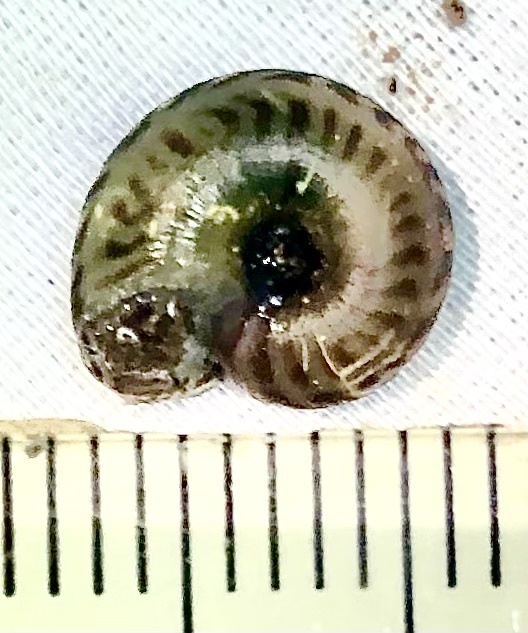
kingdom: Animalia
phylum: Mollusca
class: Gastropoda
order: Stylommatophora
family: Discidae
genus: Anguispira
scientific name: Anguispira alternata
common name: Flamed tigersnail
